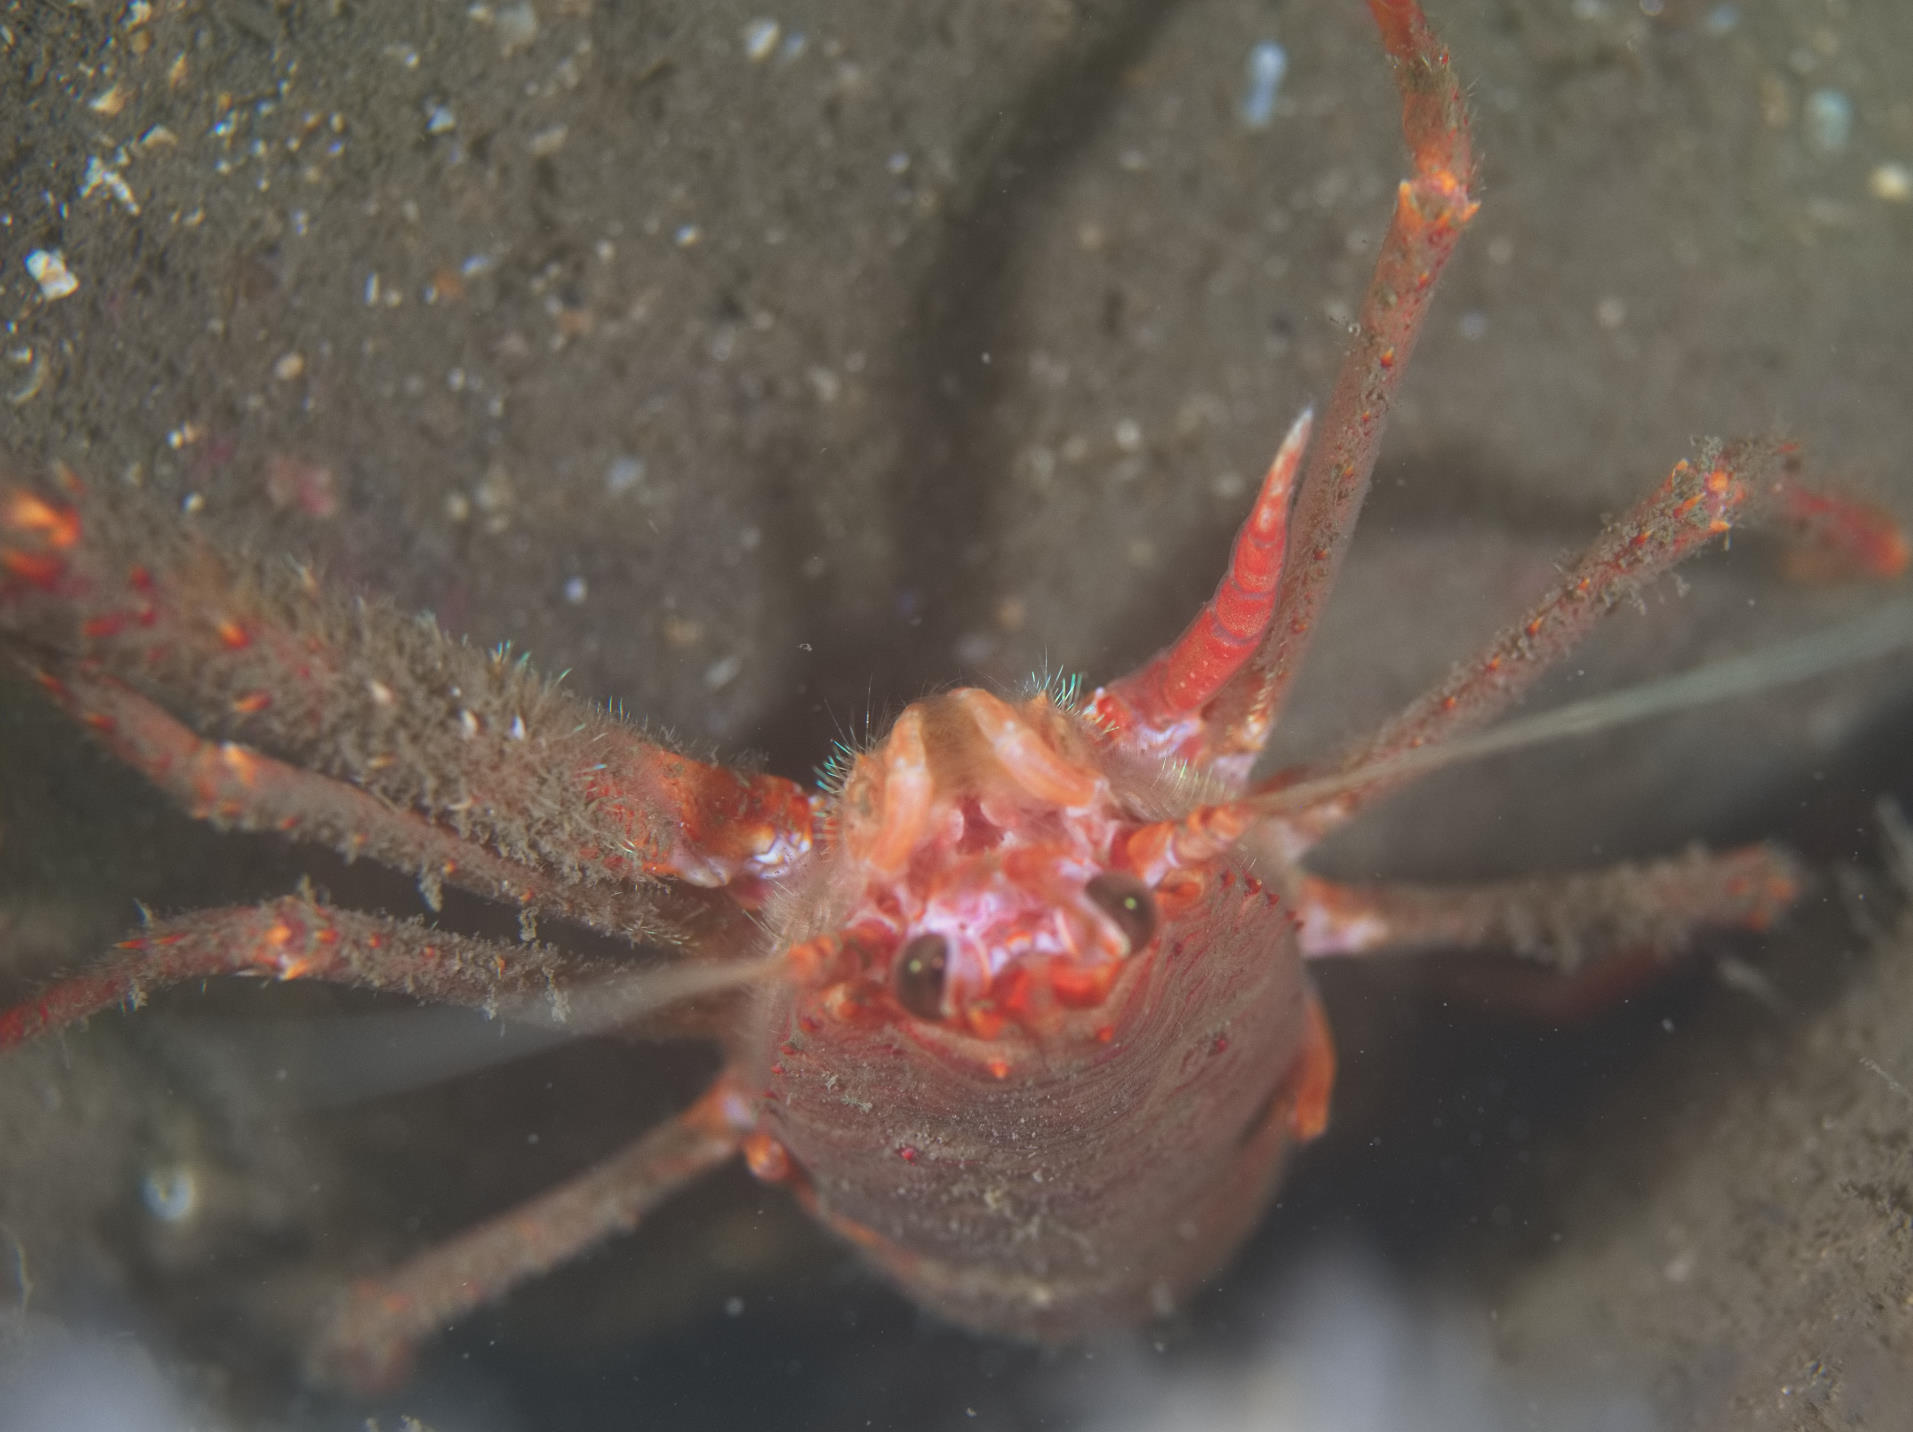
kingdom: Animalia
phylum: Arthropoda
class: Malacostraca
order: Decapoda
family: Munididae
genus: Munida
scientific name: Munida rugosa
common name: Rugose squat lobster
